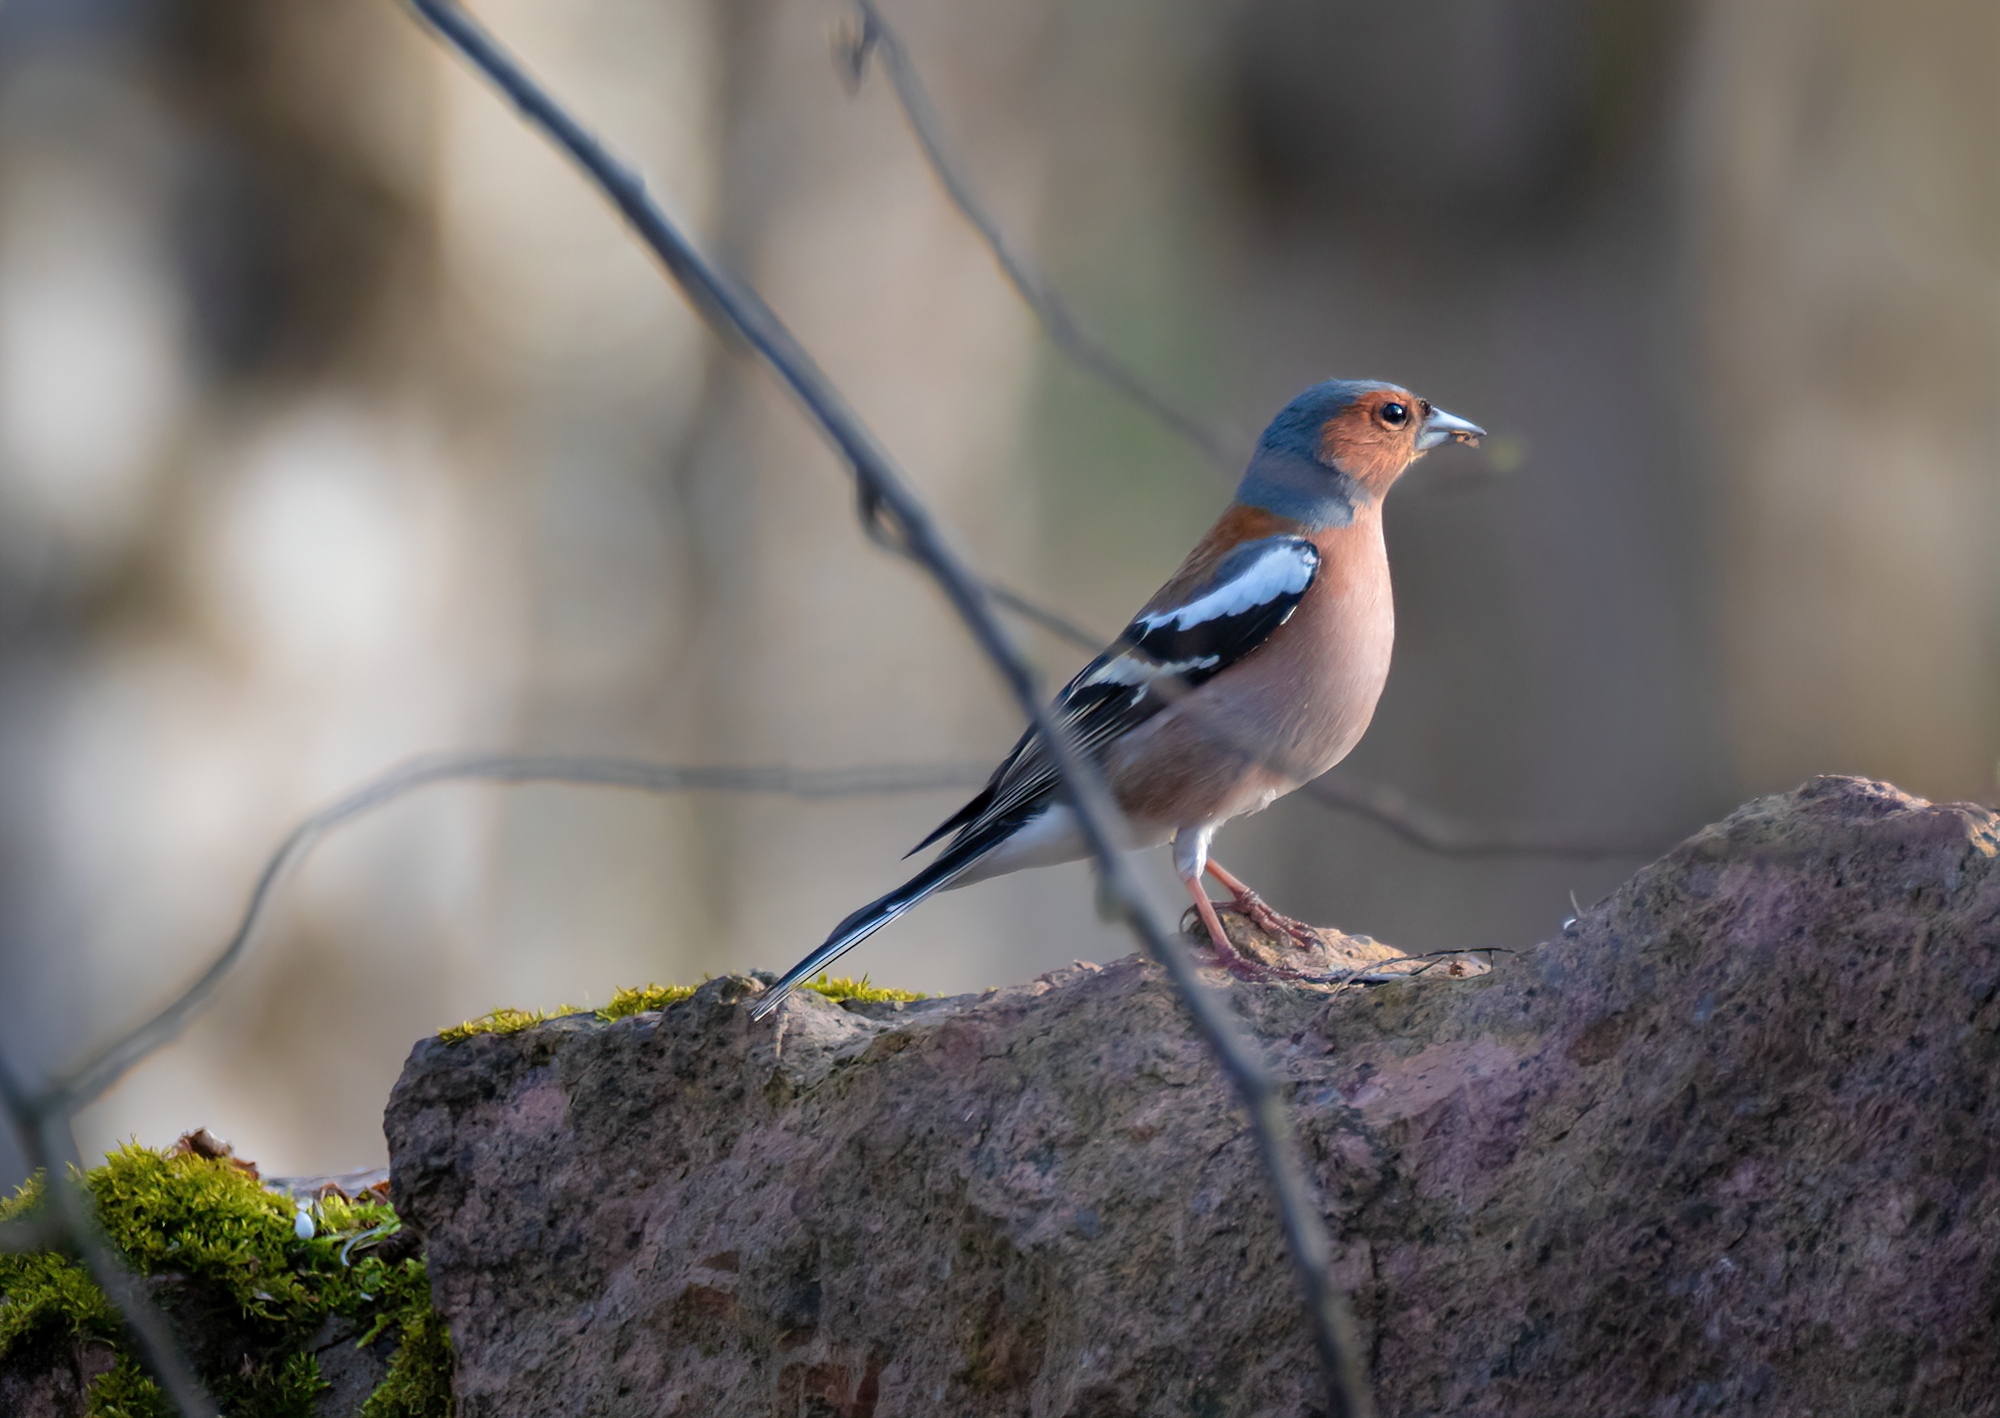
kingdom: Animalia
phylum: Chordata
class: Aves
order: Passeriformes
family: Fringillidae
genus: Fringilla
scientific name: Fringilla coelebs
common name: Common chaffinch
